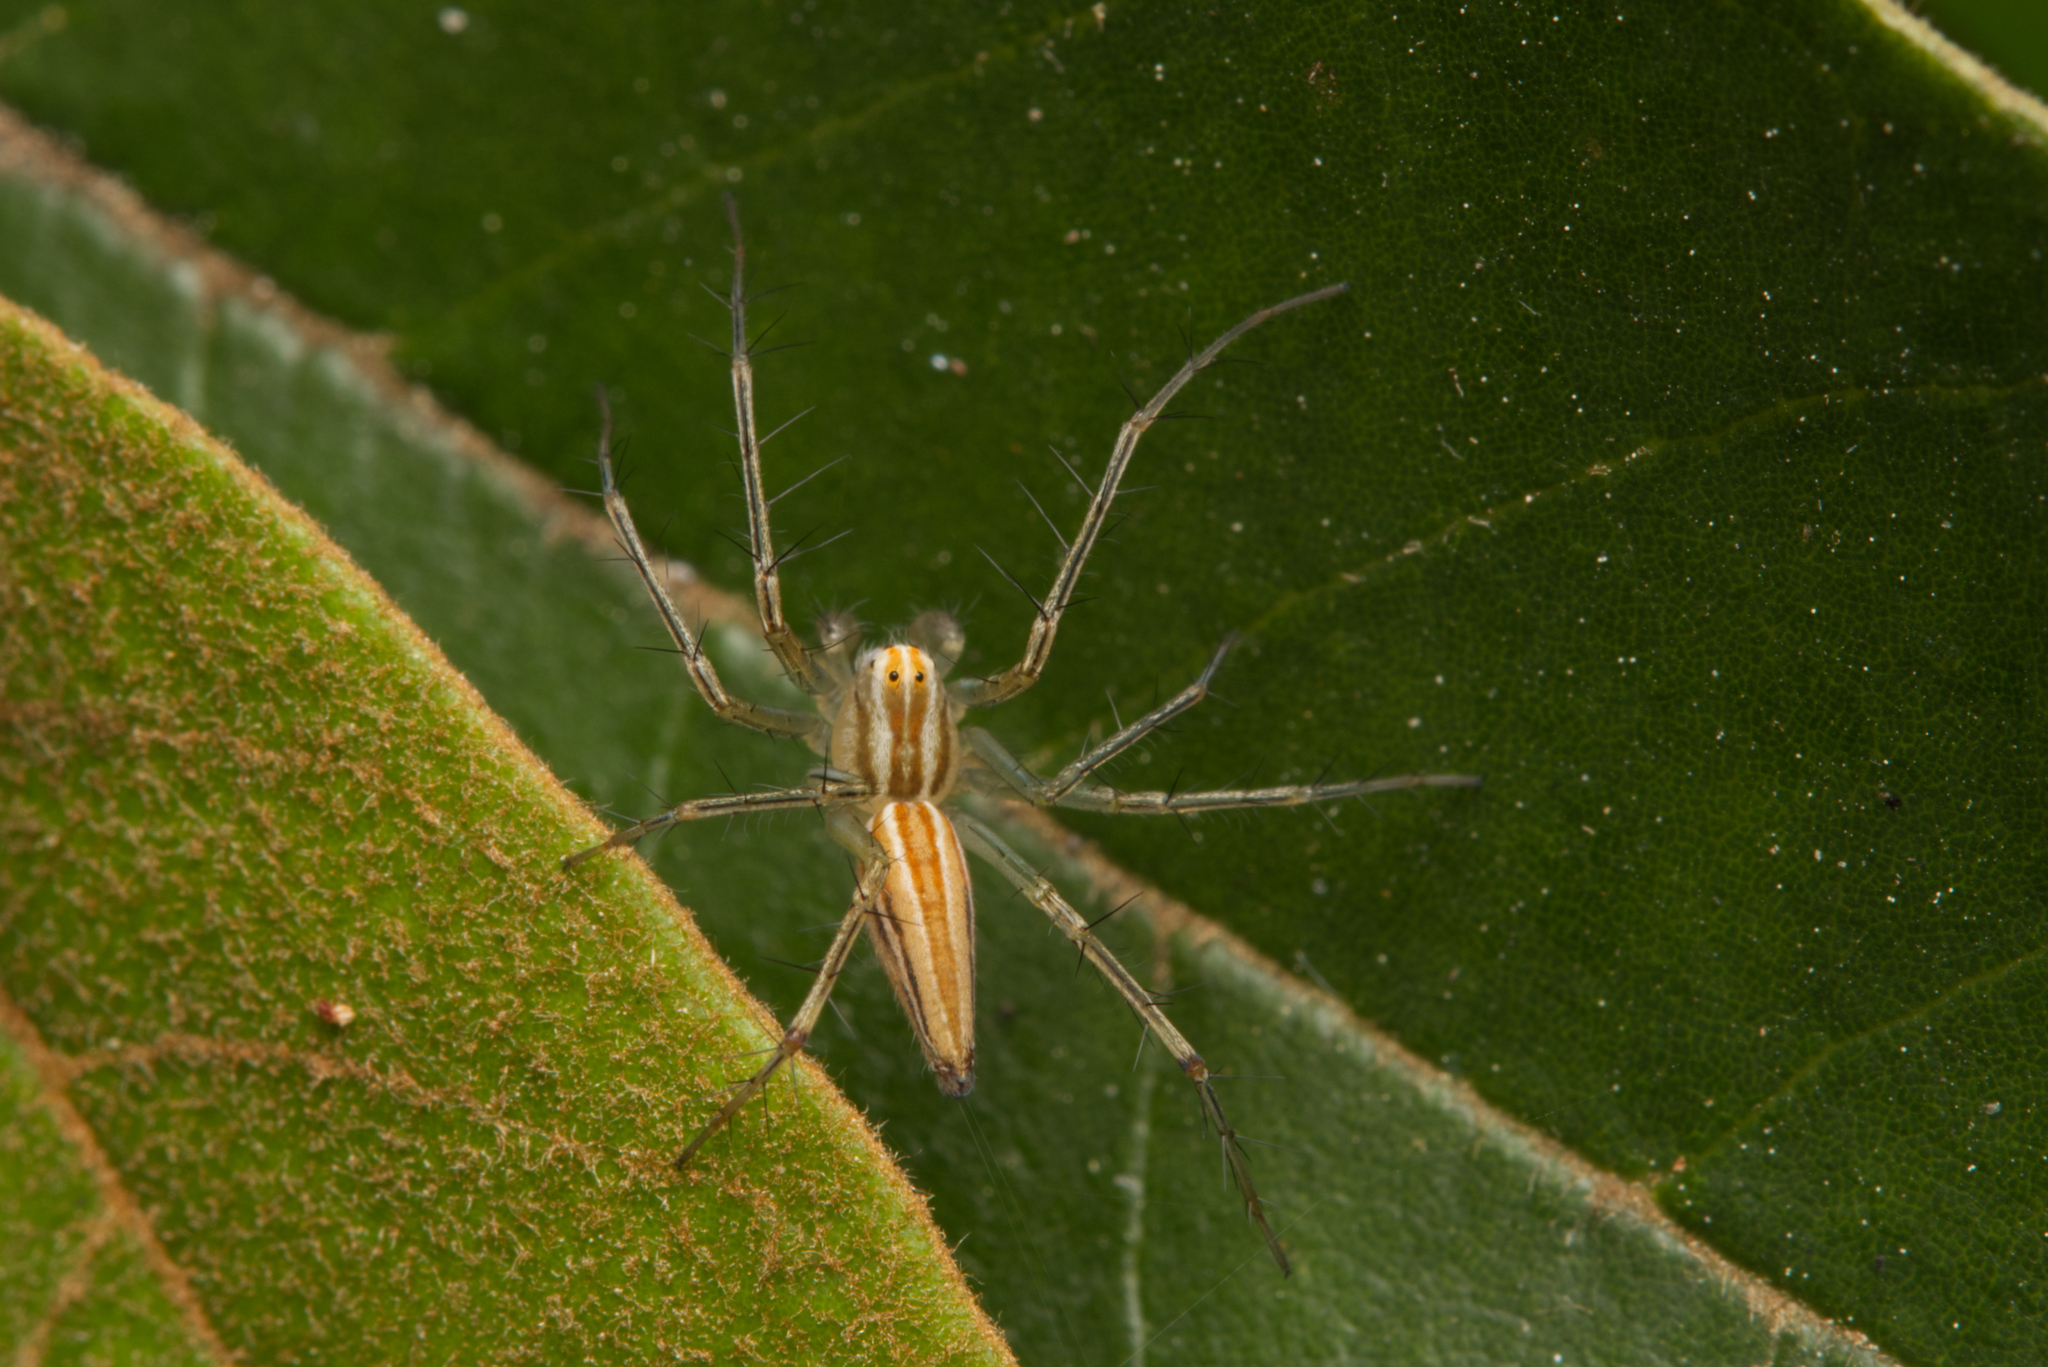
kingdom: Animalia
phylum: Arthropoda
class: Arachnida
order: Araneae
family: Oxyopidae
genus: Oxyopes
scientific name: Oxyopes macilentus
